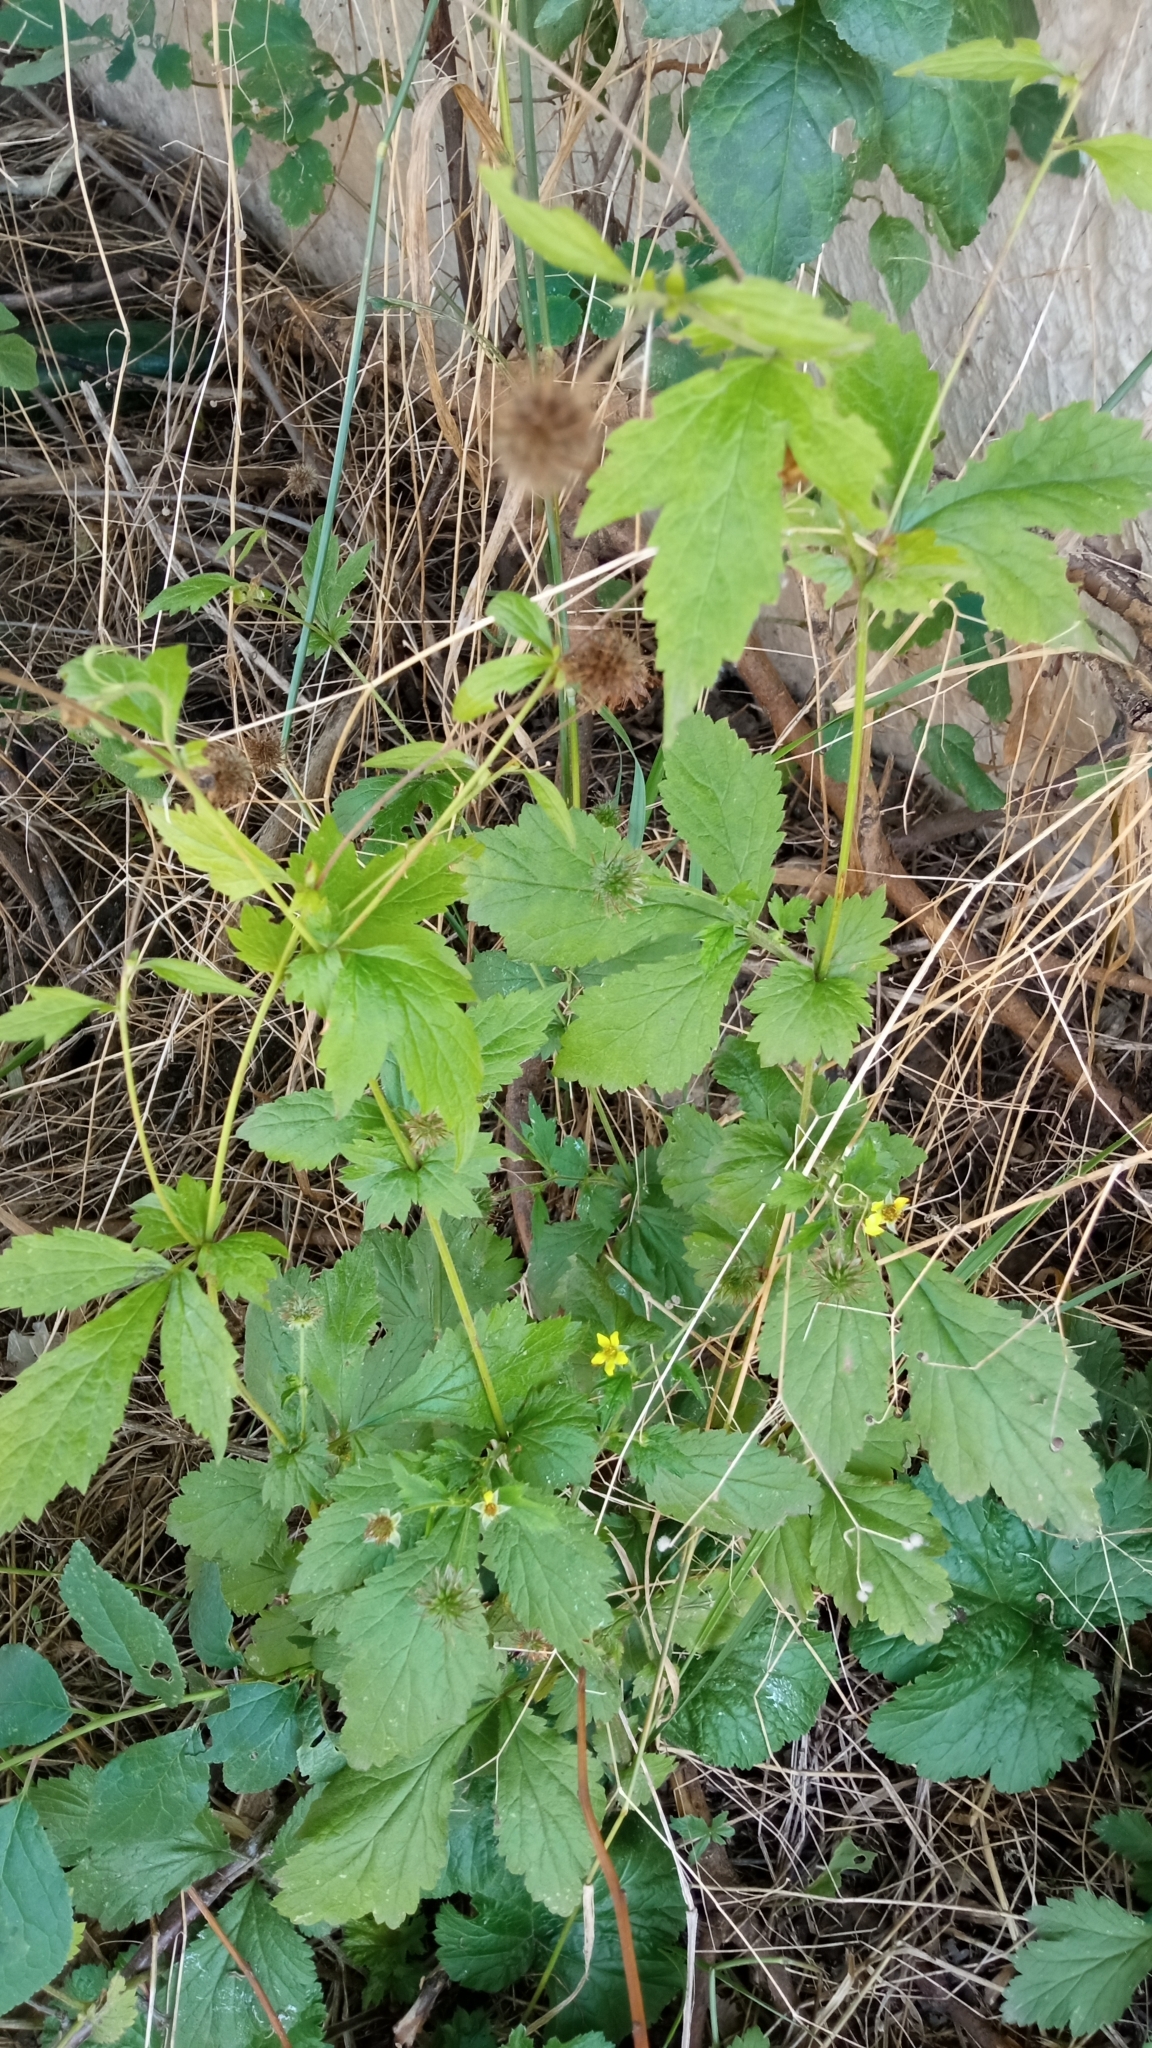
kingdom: Plantae
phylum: Tracheophyta
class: Magnoliopsida
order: Rosales
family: Rosaceae
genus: Geum
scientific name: Geum urbanum
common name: Wood avens
